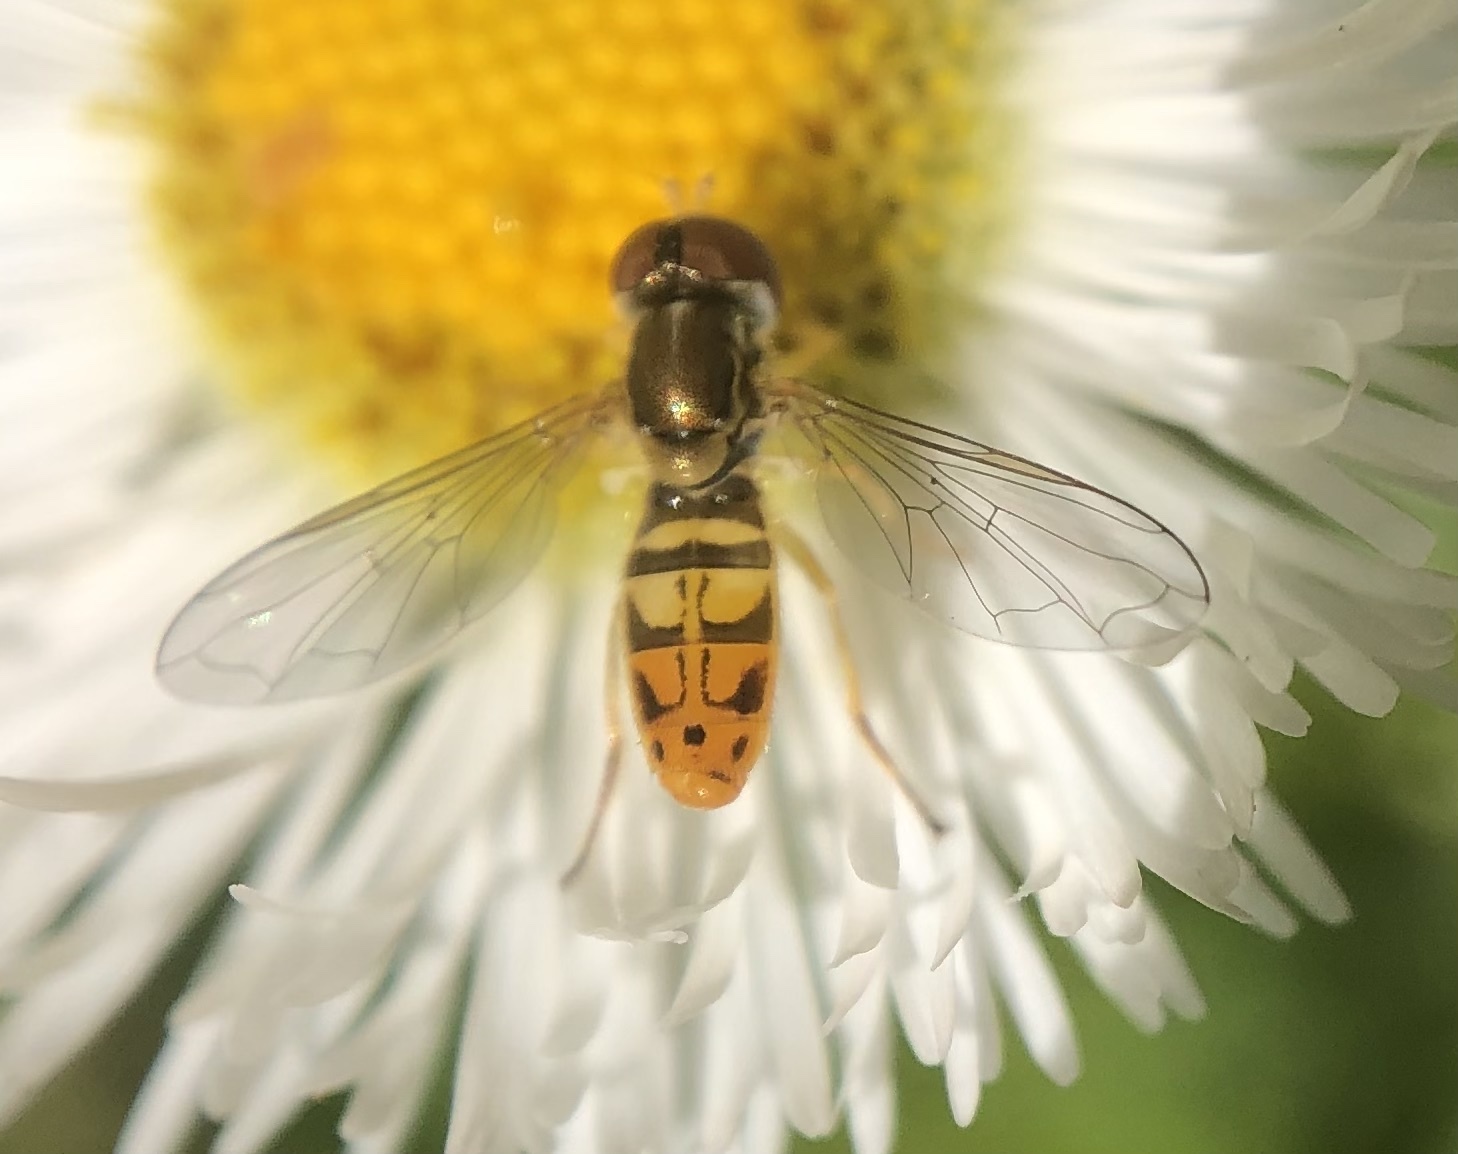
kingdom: Animalia
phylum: Arthropoda
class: Insecta
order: Diptera
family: Syrphidae
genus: Toxomerus
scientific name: Toxomerus marginatus
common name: Syrphid fly
